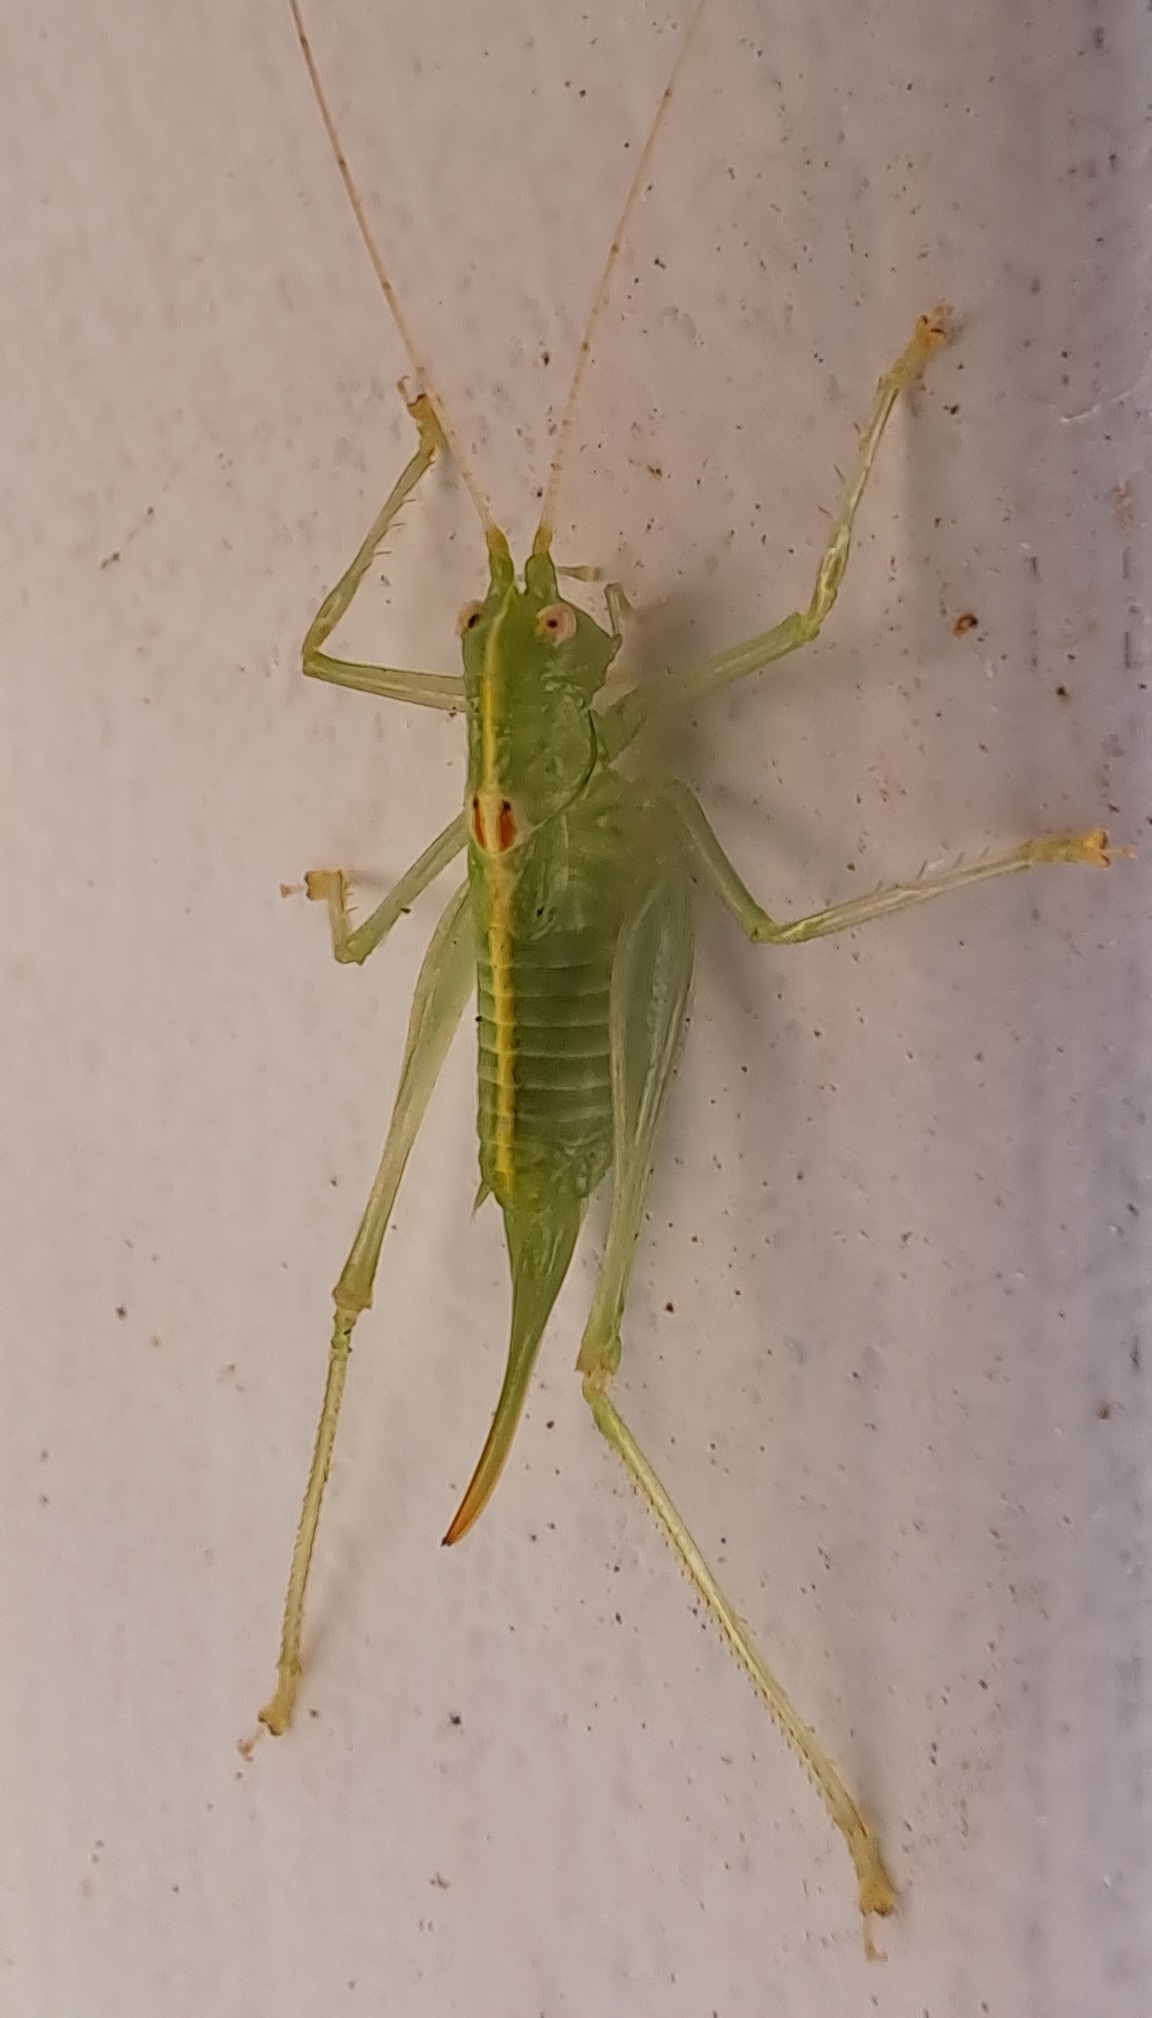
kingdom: Animalia
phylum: Arthropoda
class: Insecta
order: Orthoptera
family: Tettigoniidae
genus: Meconema
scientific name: Meconema meridionale
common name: Southern oak bush-cricket
